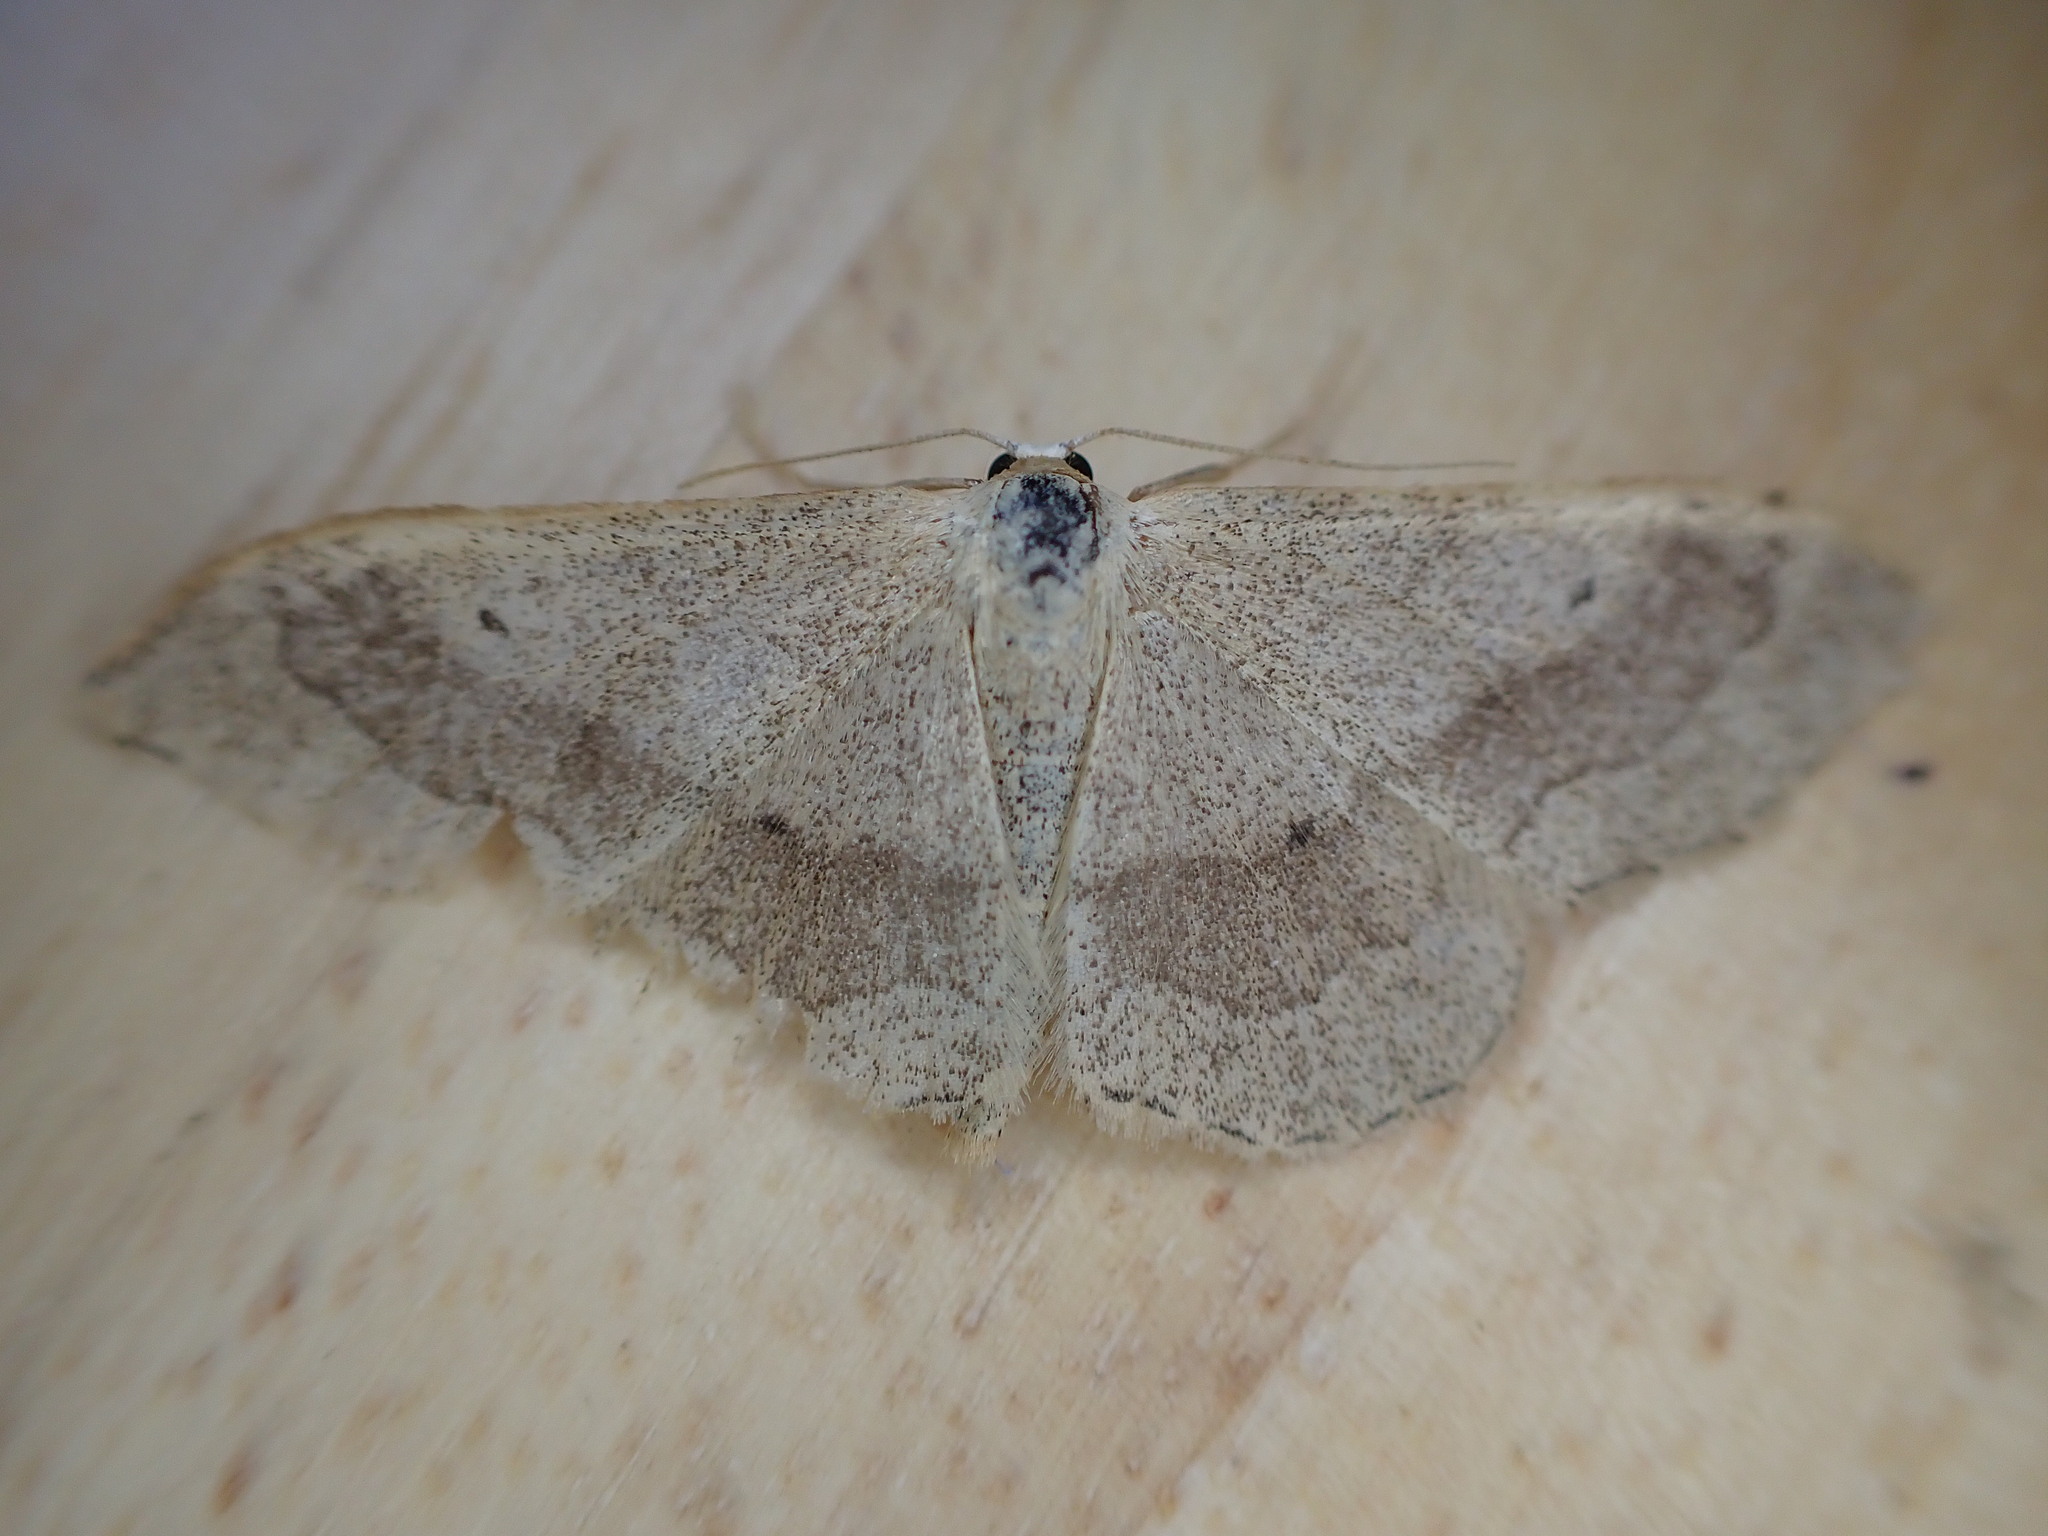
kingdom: Animalia
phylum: Arthropoda
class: Insecta
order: Lepidoptera
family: Geometridae
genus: Idaea
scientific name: Idaea aversata
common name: Riband wave
